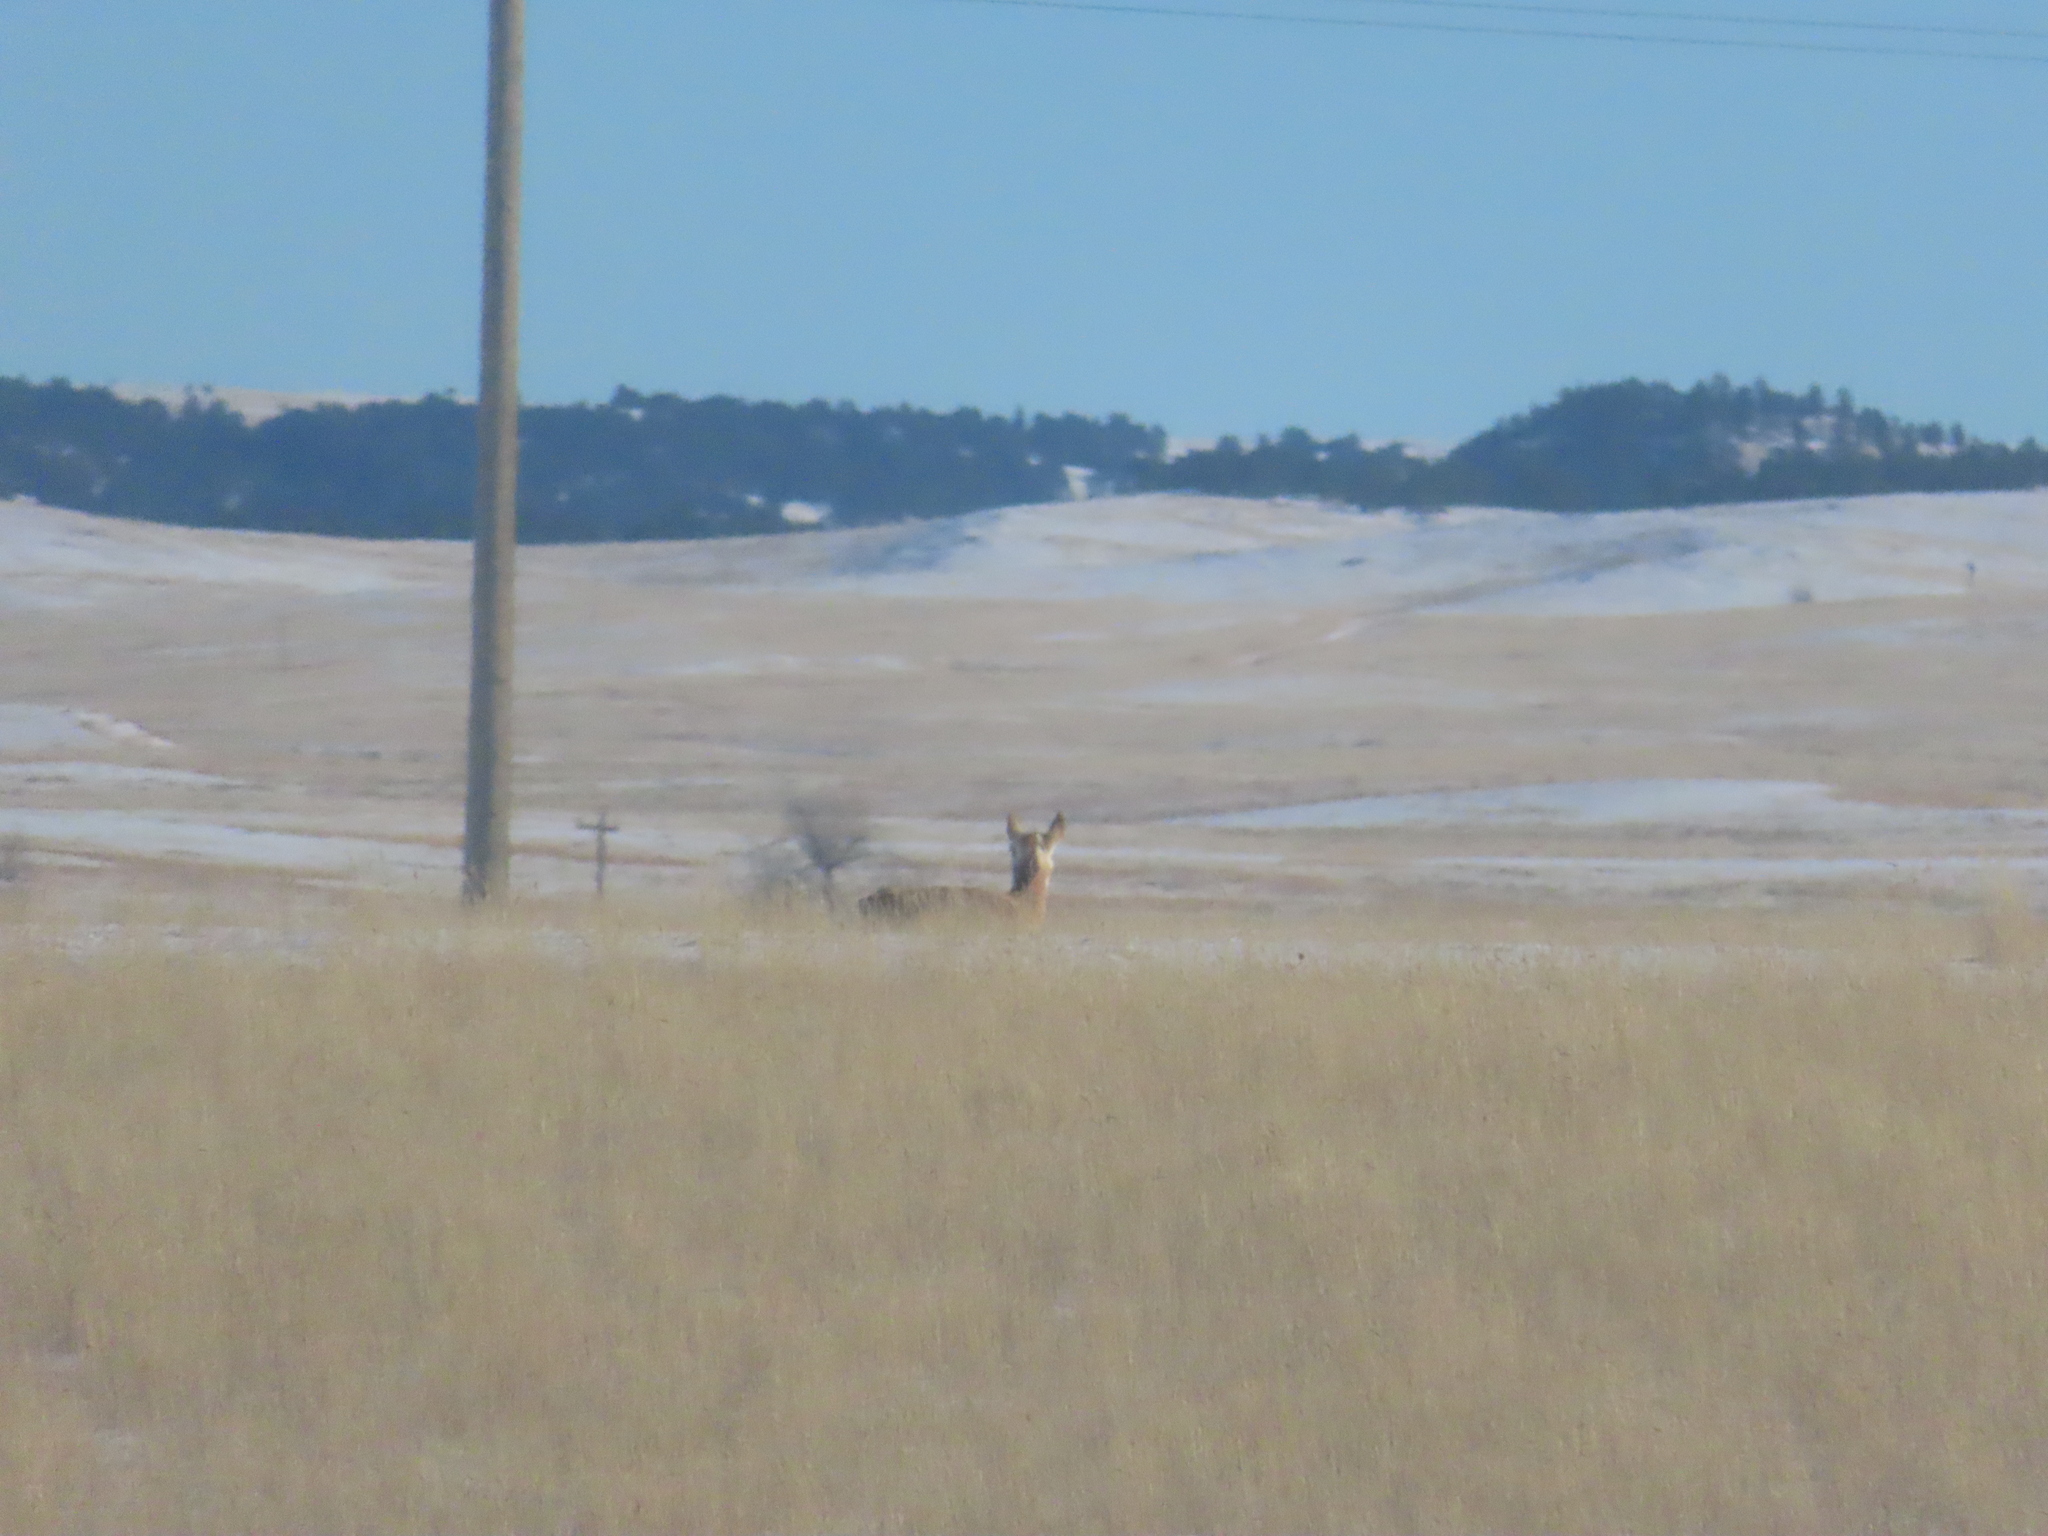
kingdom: Animalia
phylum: Chordata
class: Mammalia
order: Artiodactyla
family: Antilocapridae
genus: Antilocapra
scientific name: Antilocapra americana
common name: Pronghorn
